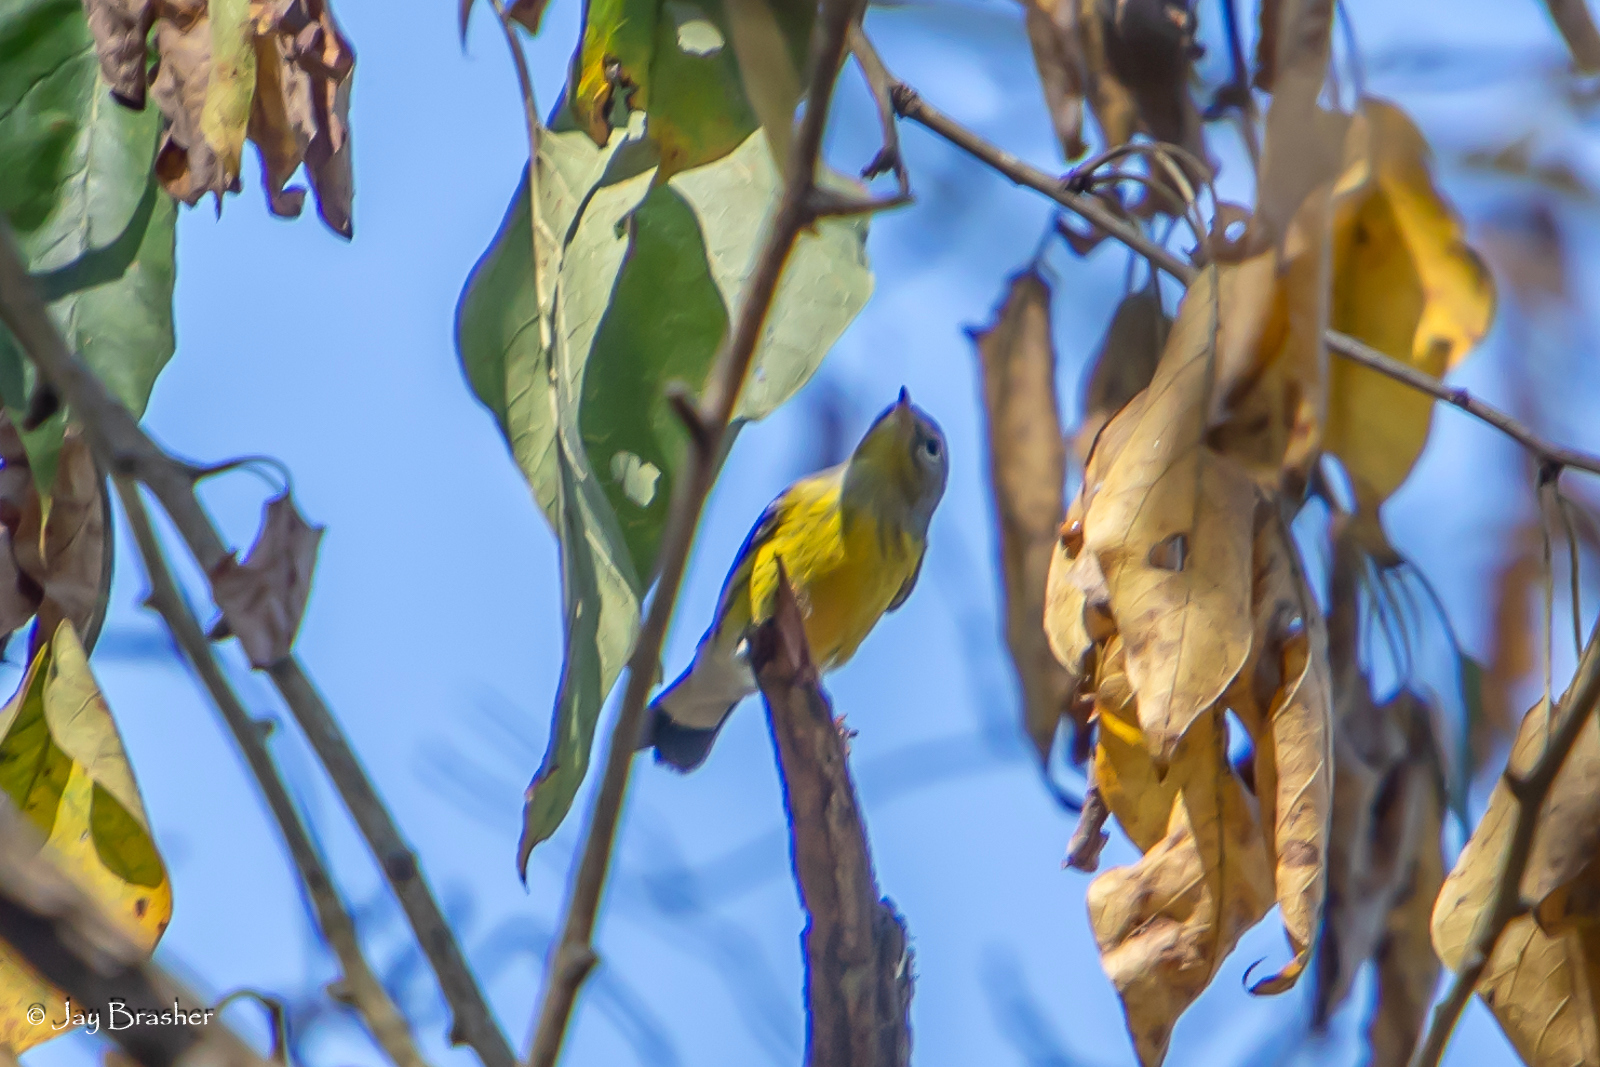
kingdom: Animalia
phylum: Chordata
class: Aves
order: Passeriformes
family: Parulidae
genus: Setophaga
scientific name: Setophaga magnolia
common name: Magnolia warbler
